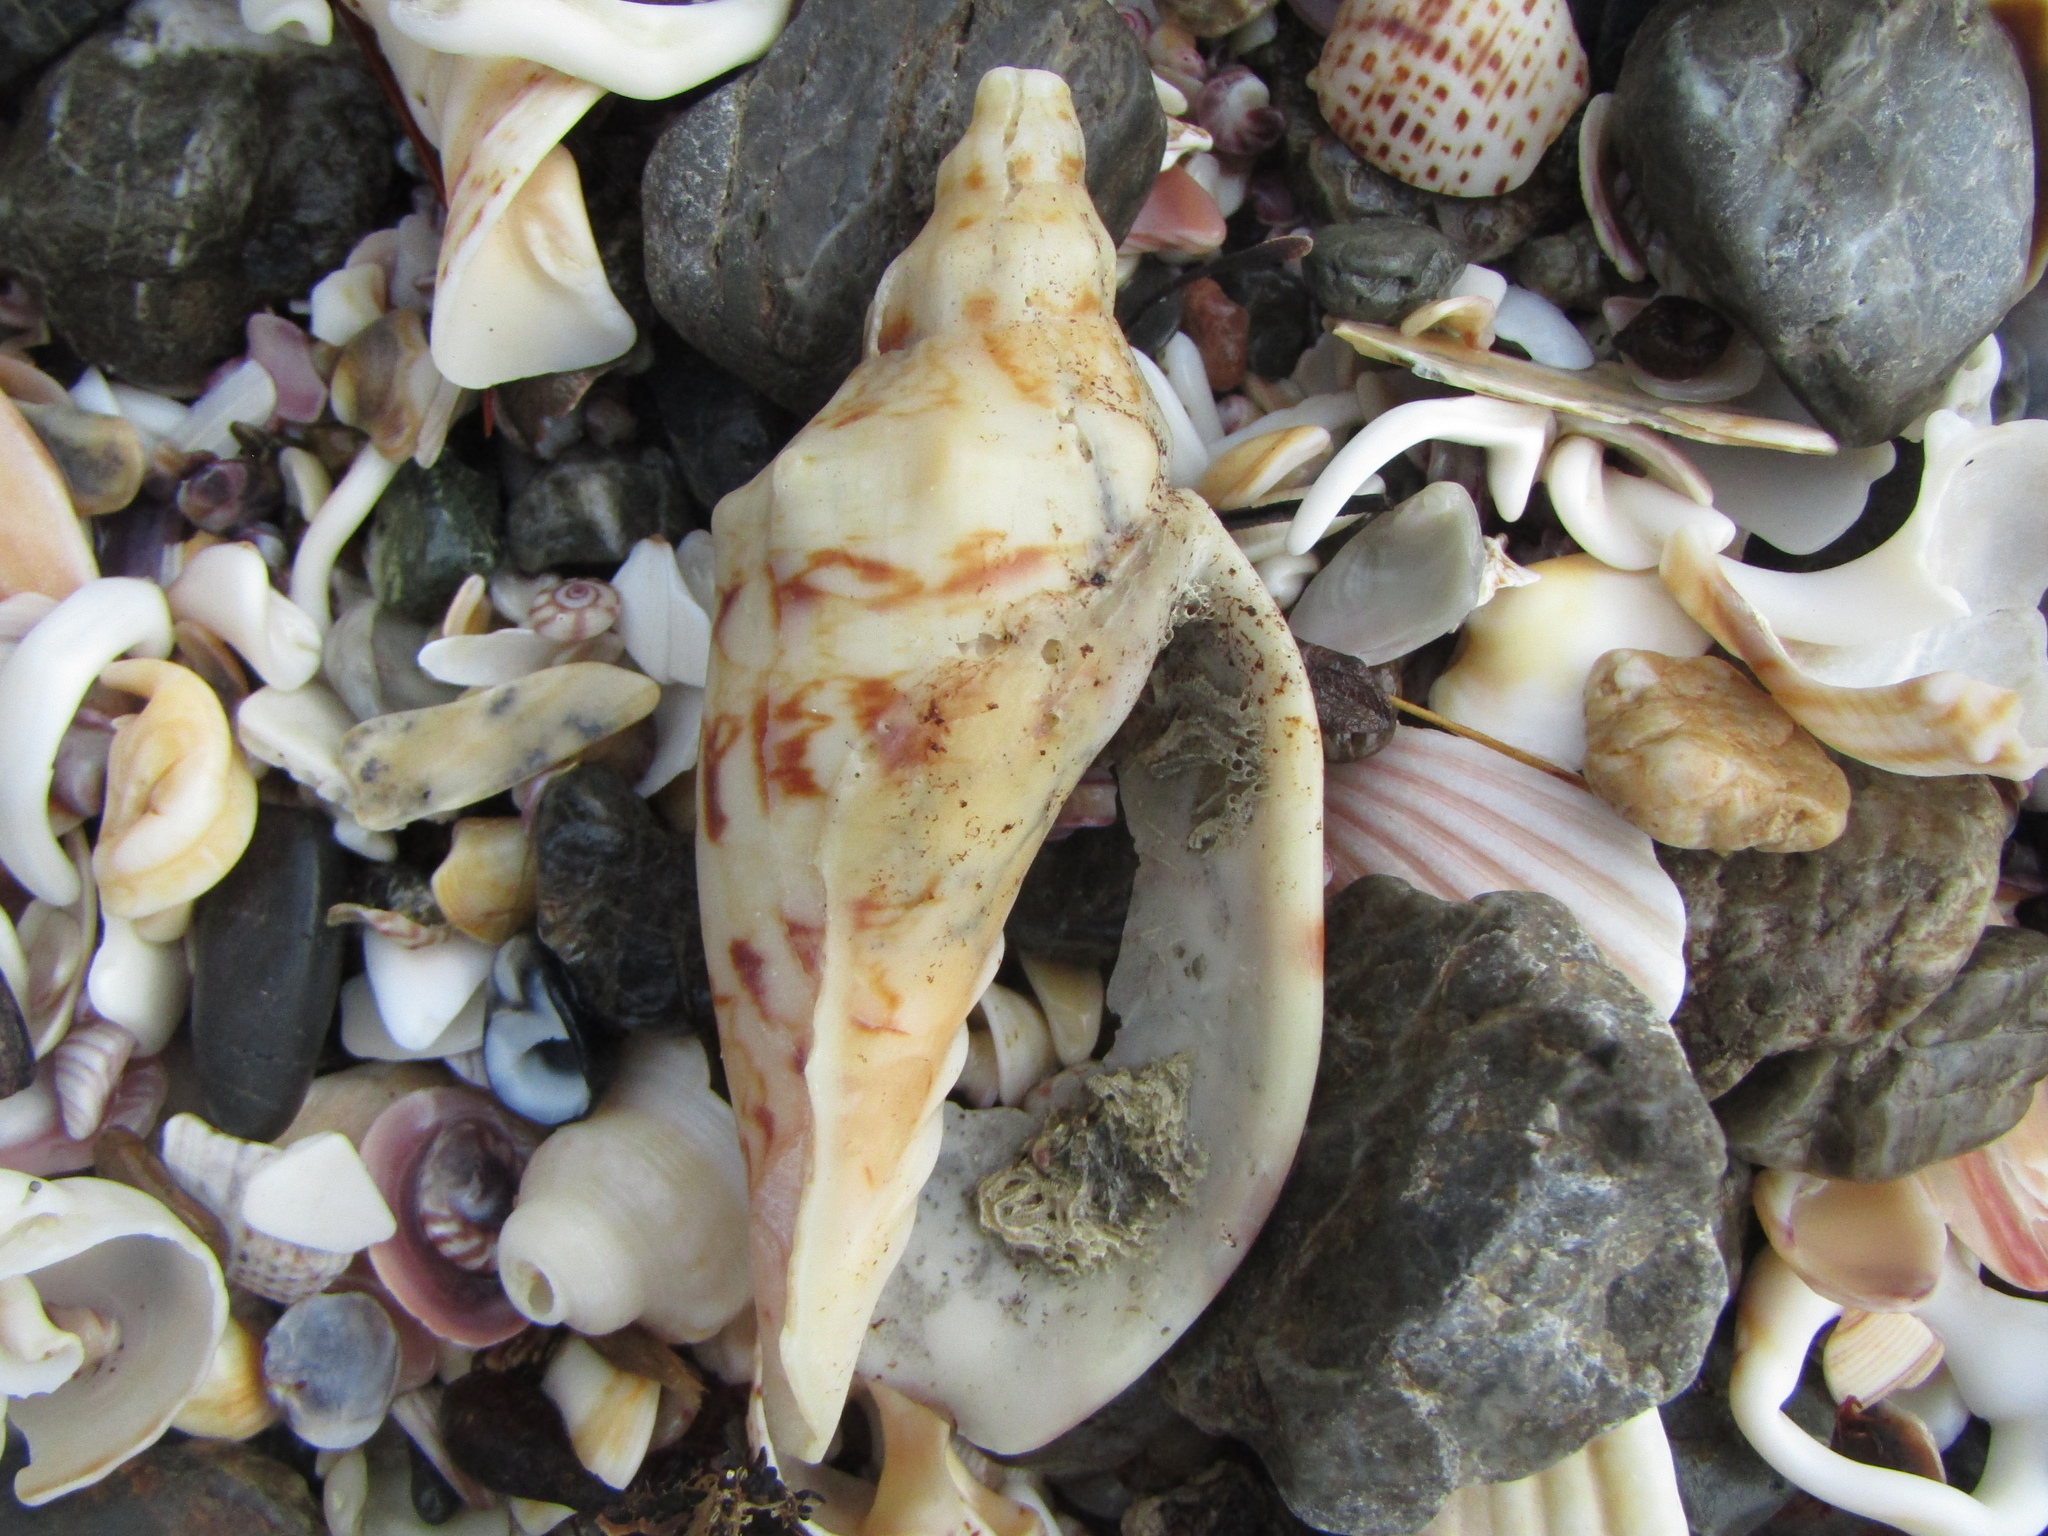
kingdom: Animalia
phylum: Mollusca
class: Gastropoda
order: Neogastropoda
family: Volutidae
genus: Alcithoe
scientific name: Alcithoe arabica
